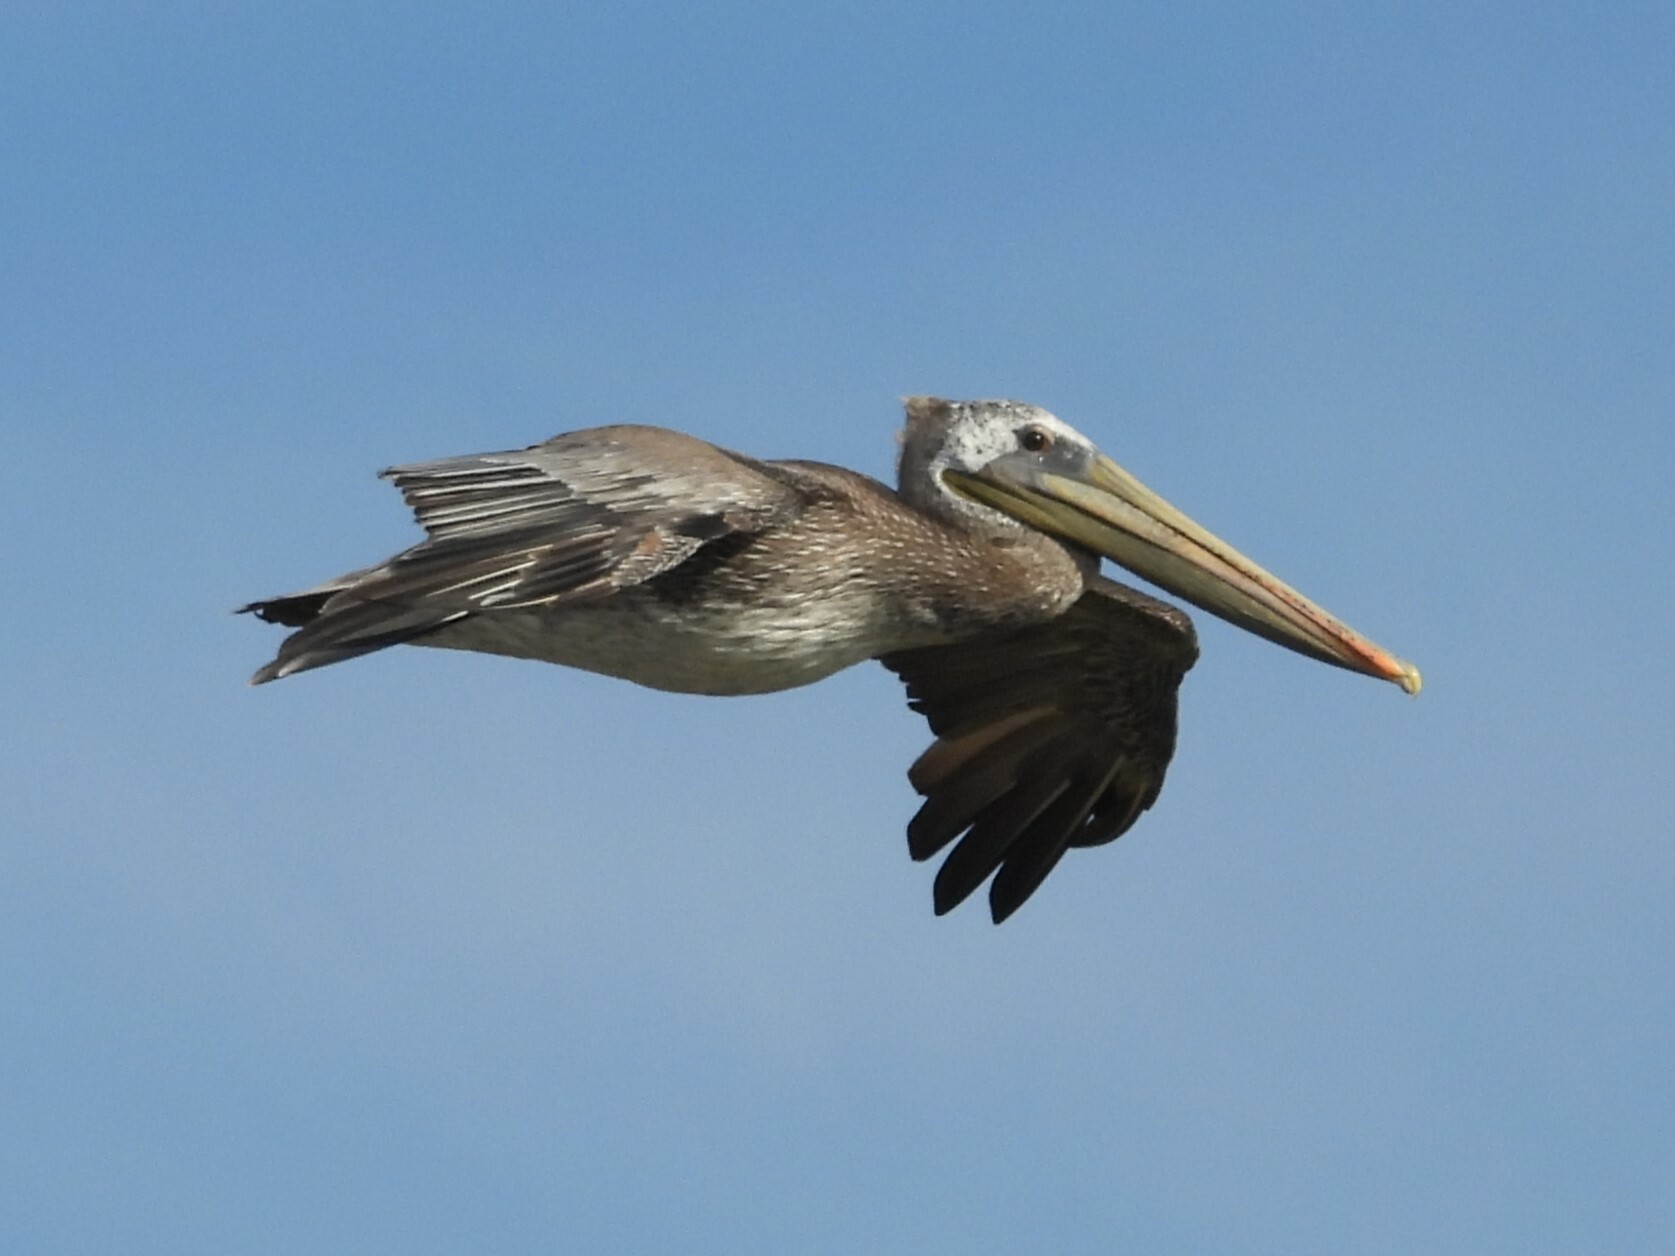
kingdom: Animalia
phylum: Chordata
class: Aves
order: Pelecaniformes
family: Pelecanidae
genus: Pelecanus
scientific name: Pelecanus occidentalis
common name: Brown pelican
